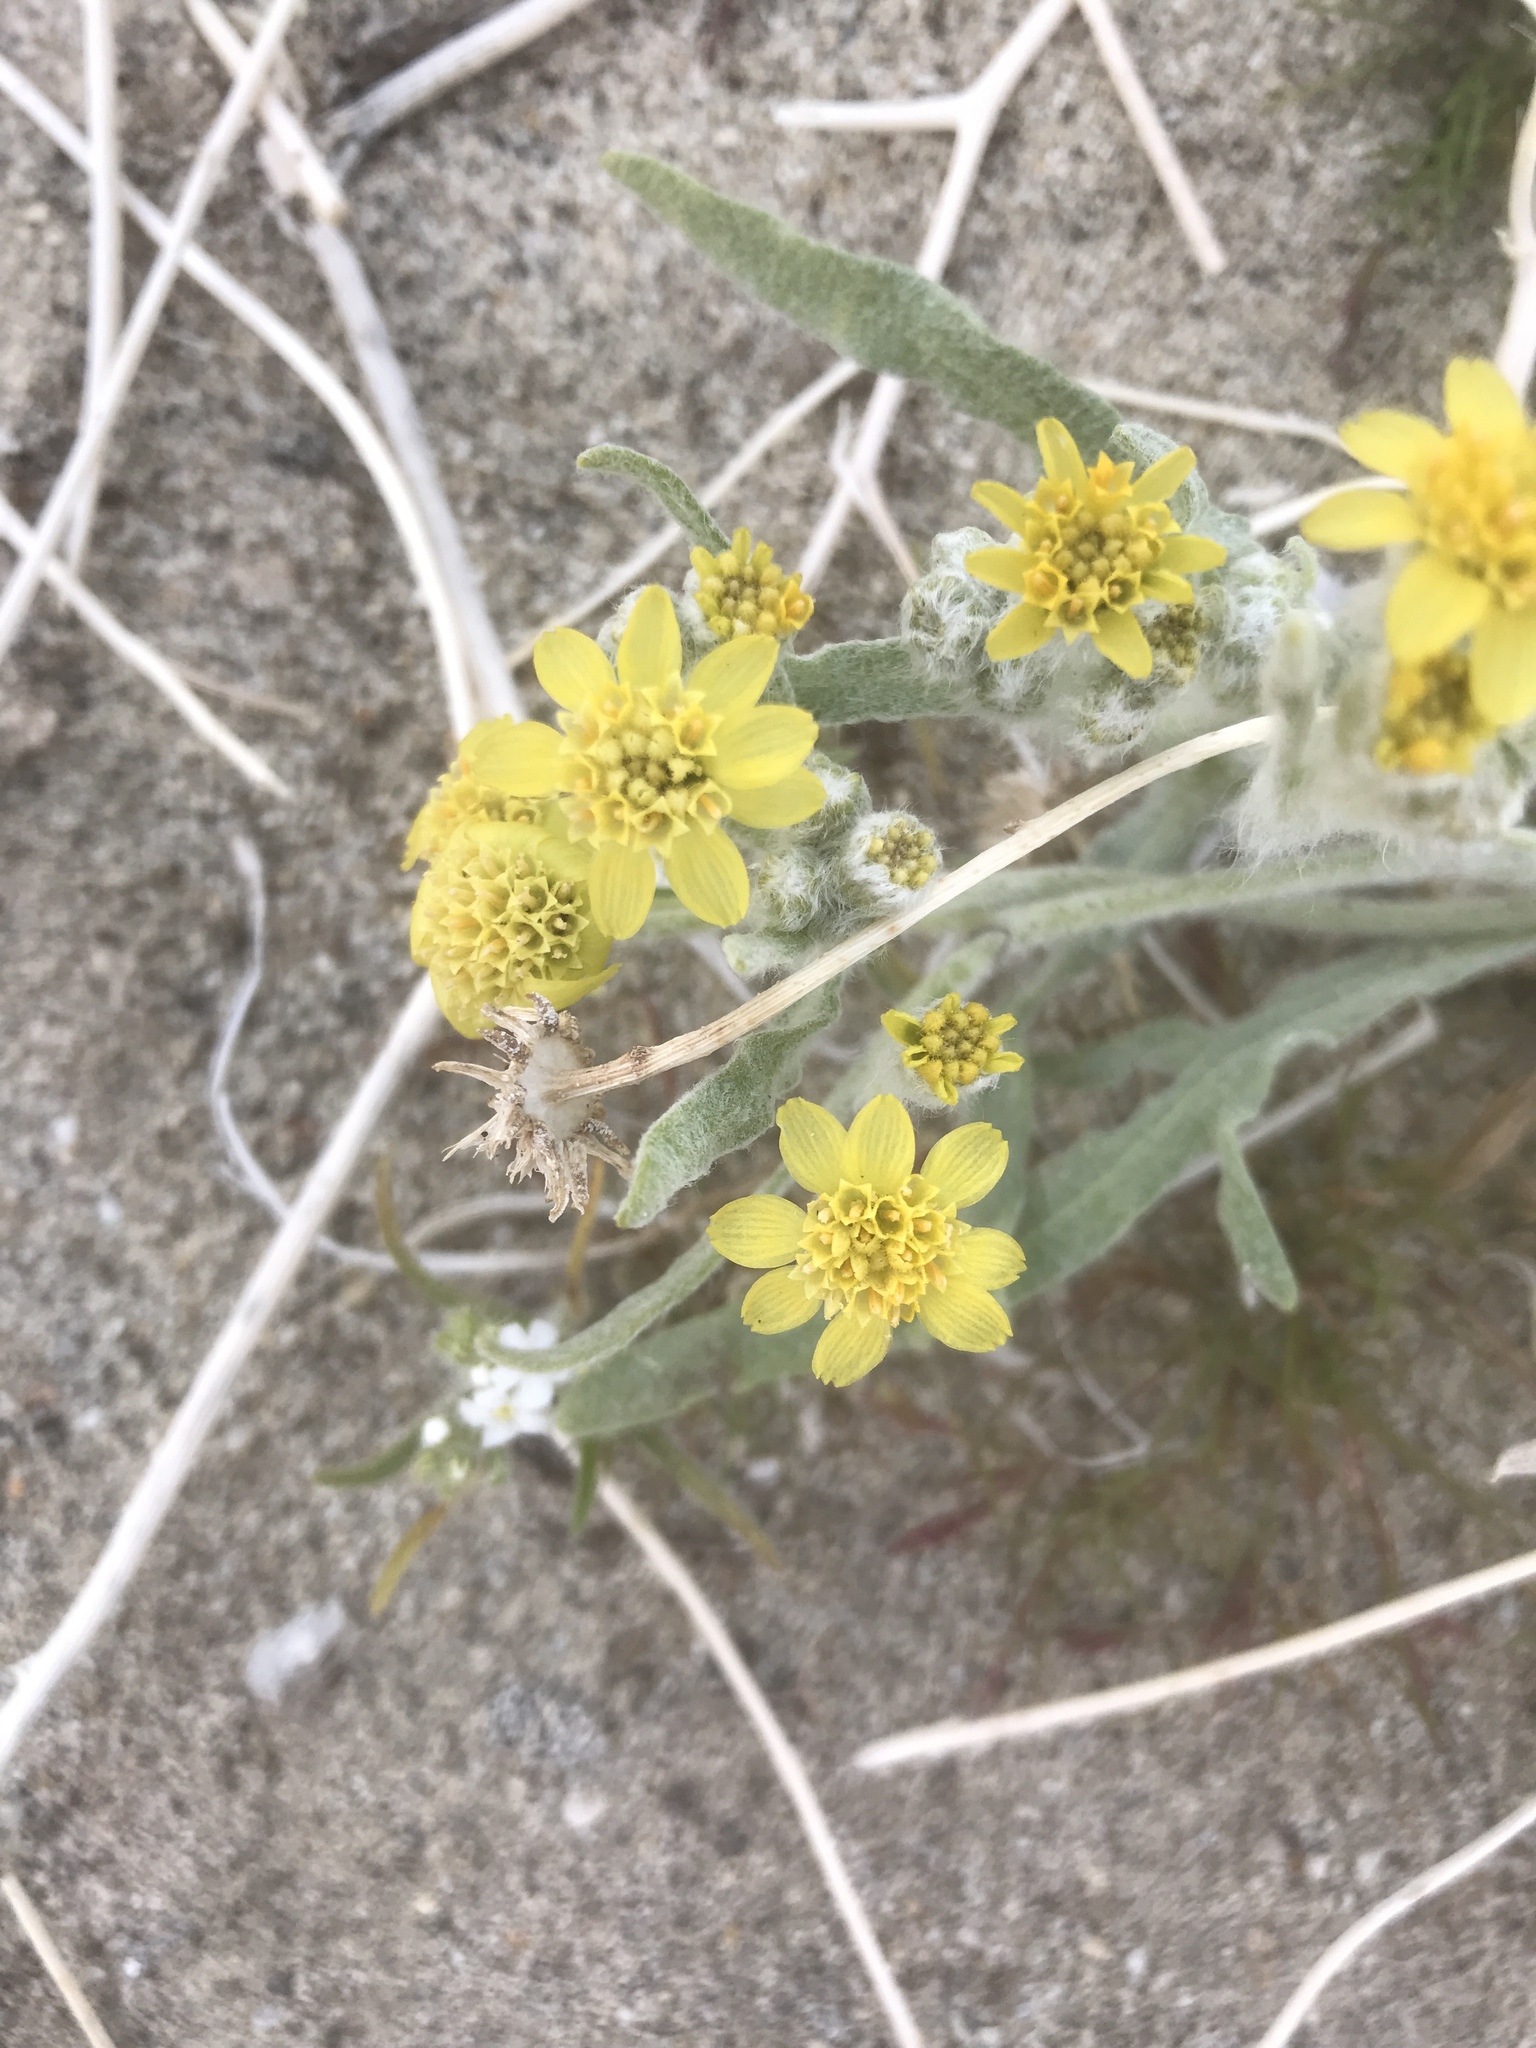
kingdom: Plantae
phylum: Tracheophyta
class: Magnoliopsida
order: Asterales
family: Asteraceae
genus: Baileya
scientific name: Baileya pauciradiata
